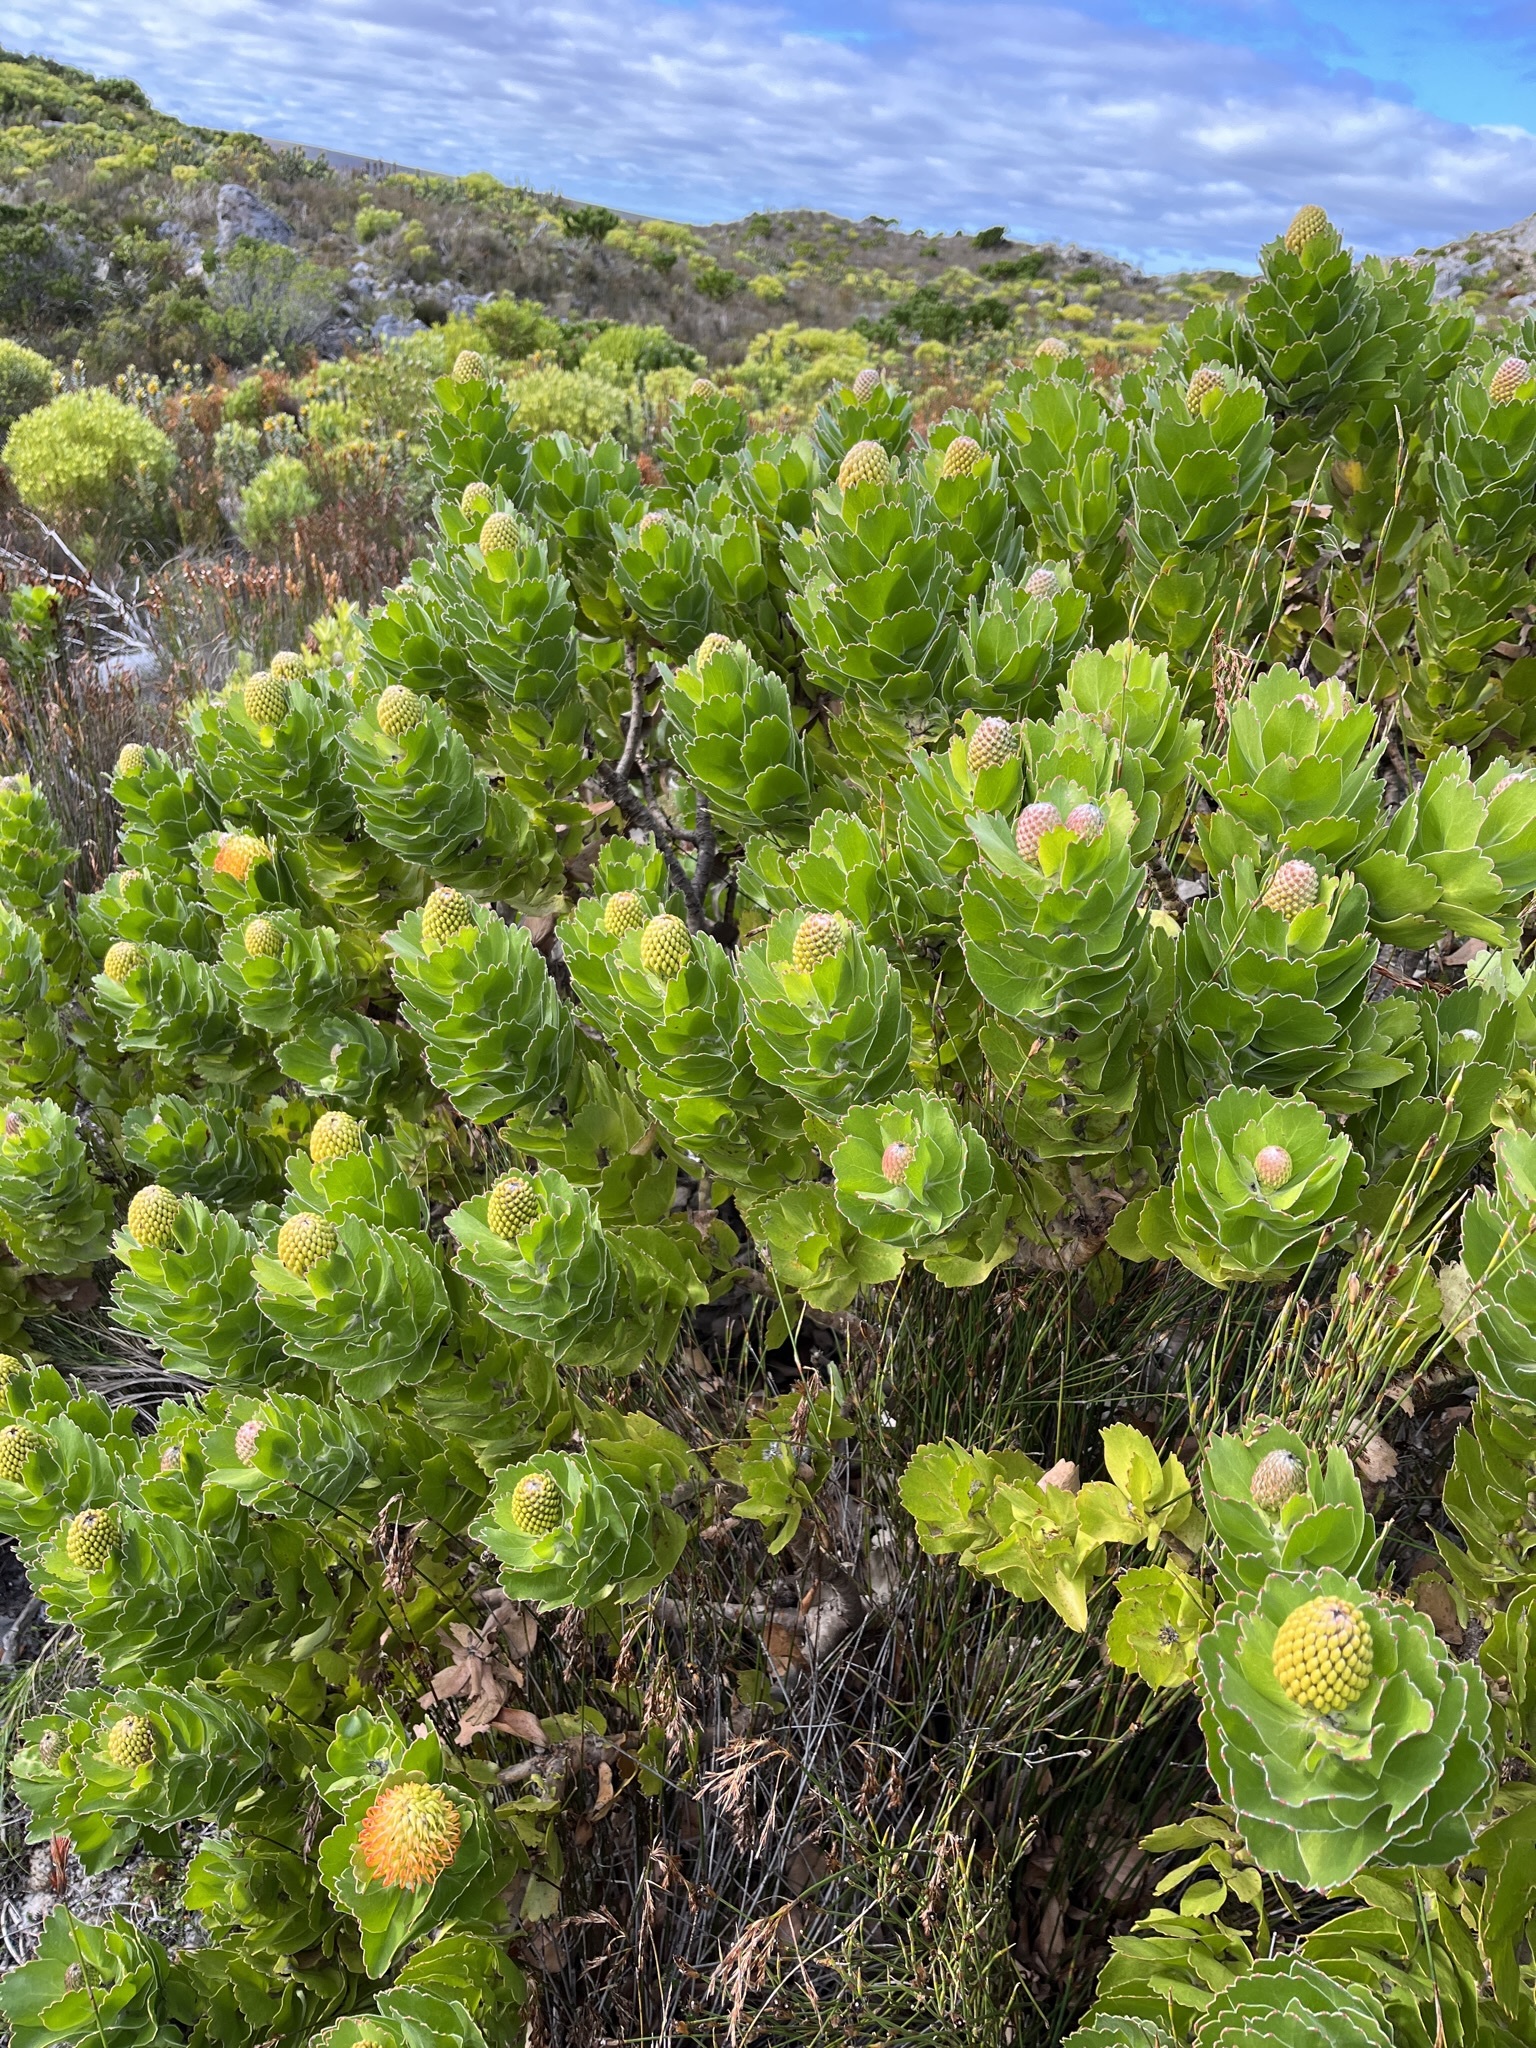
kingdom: Plantae
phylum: Tracheophyta
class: Magnoliopsida
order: Proteales
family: Proteaceae
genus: Leucospermum
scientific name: Leucospermum patersonii
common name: False tree pincushion
